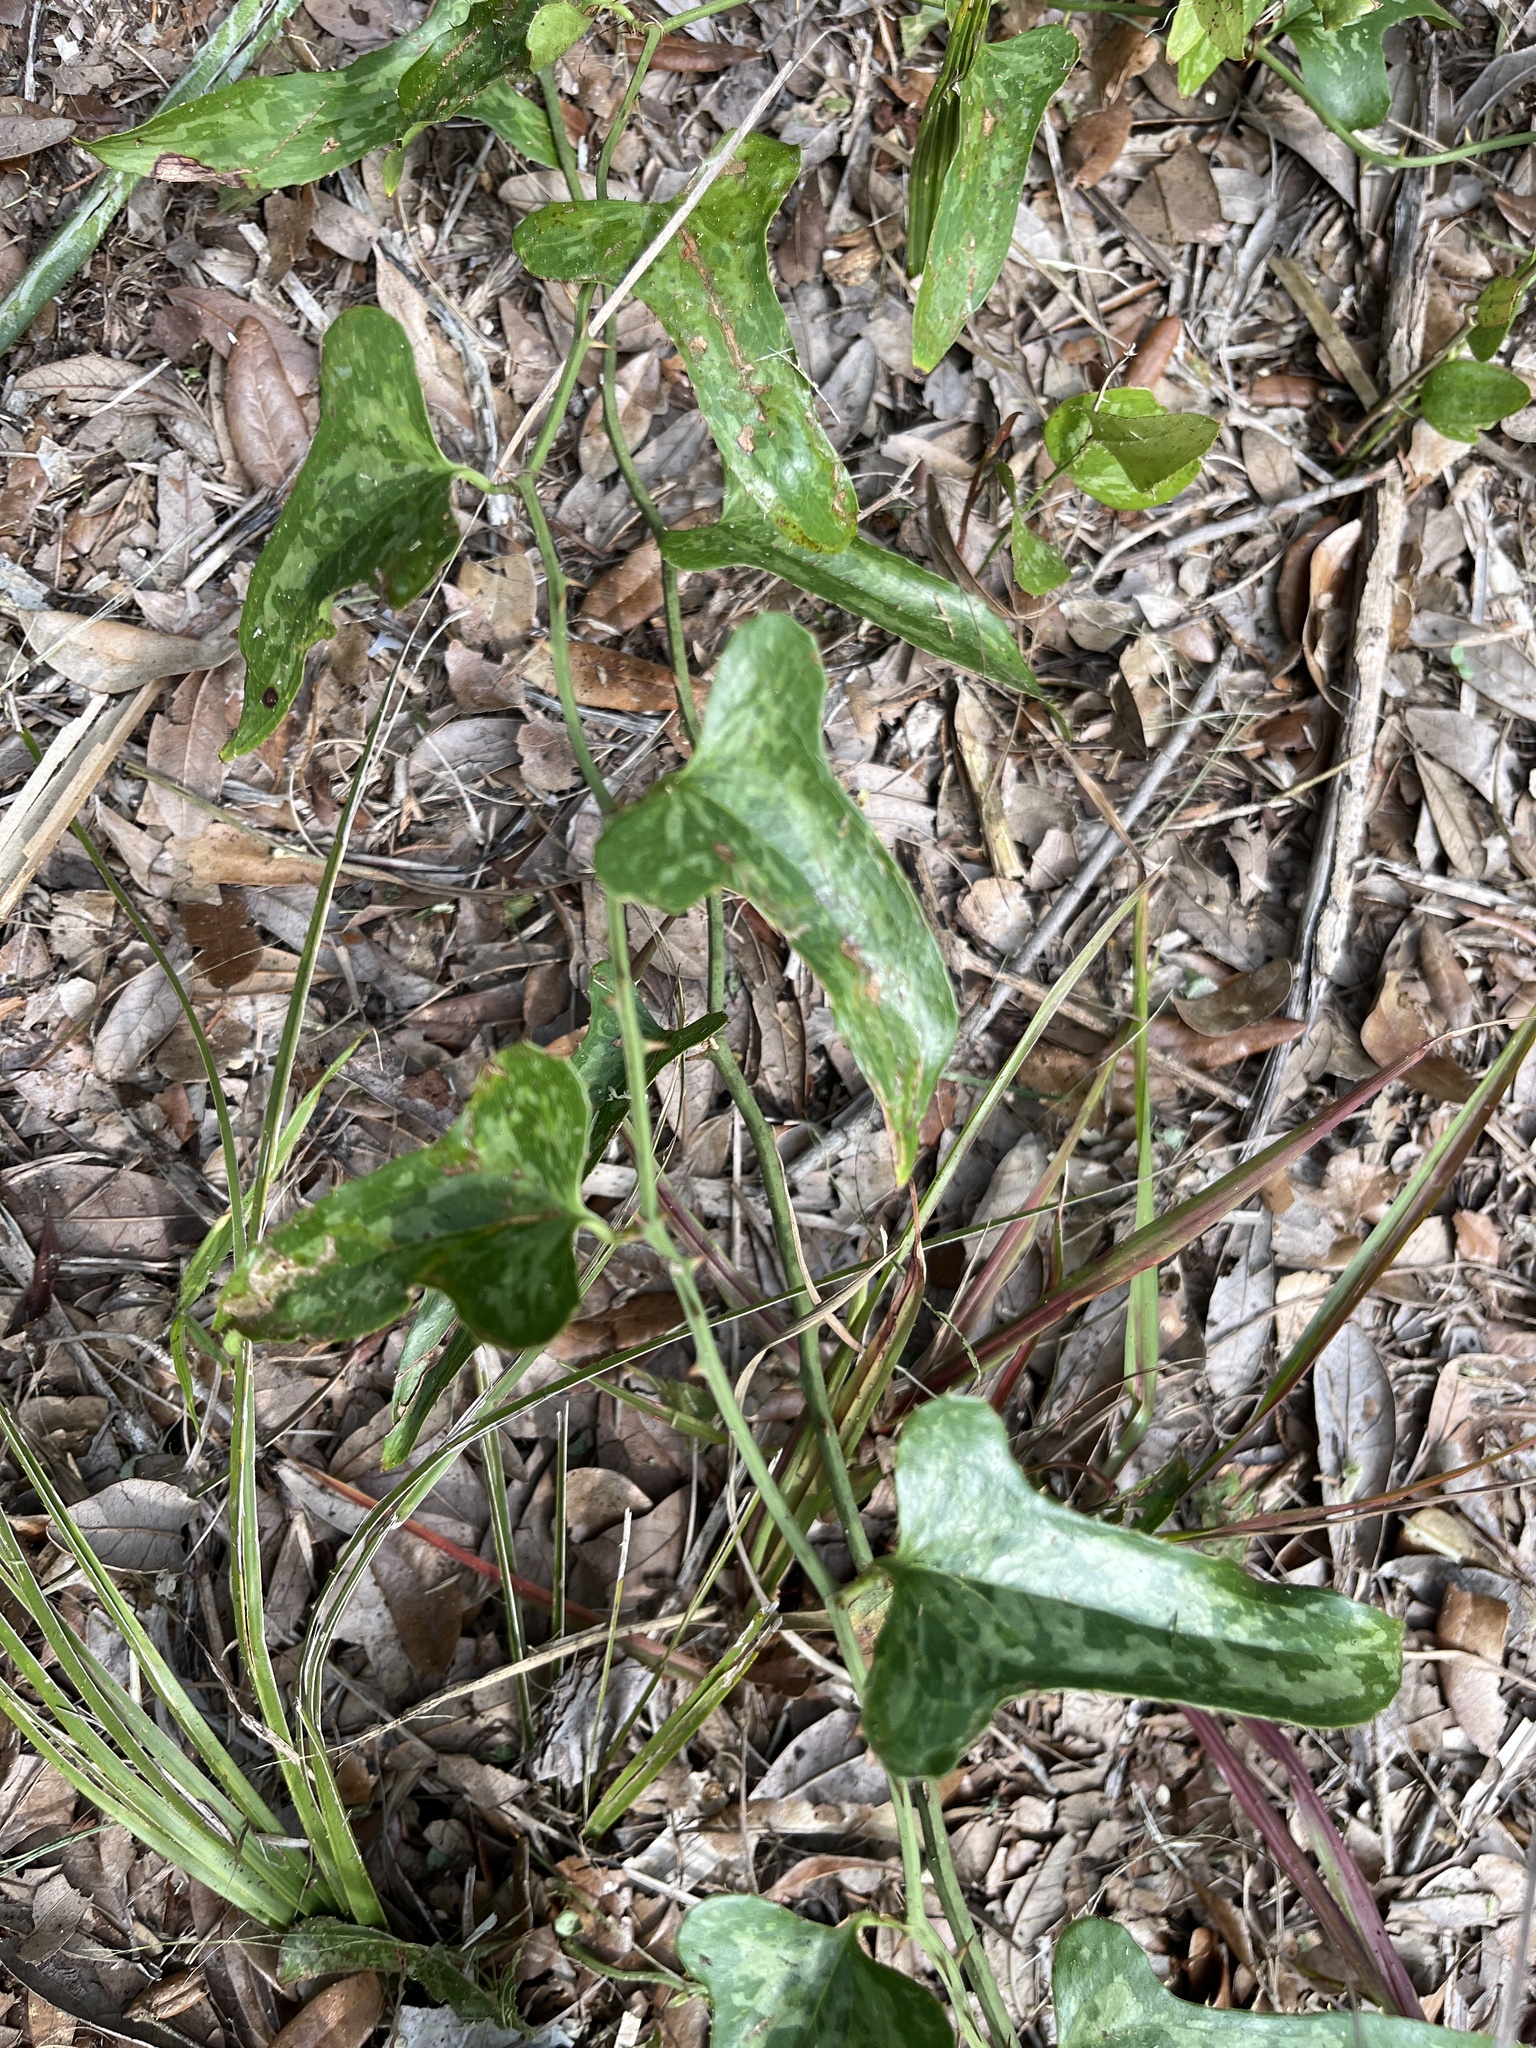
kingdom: Plantae
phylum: Tracheophyta
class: Liliopsida
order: Liliales
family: Smilacaceae
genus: Smilax
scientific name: Smilax bona-nox
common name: Catbrier
